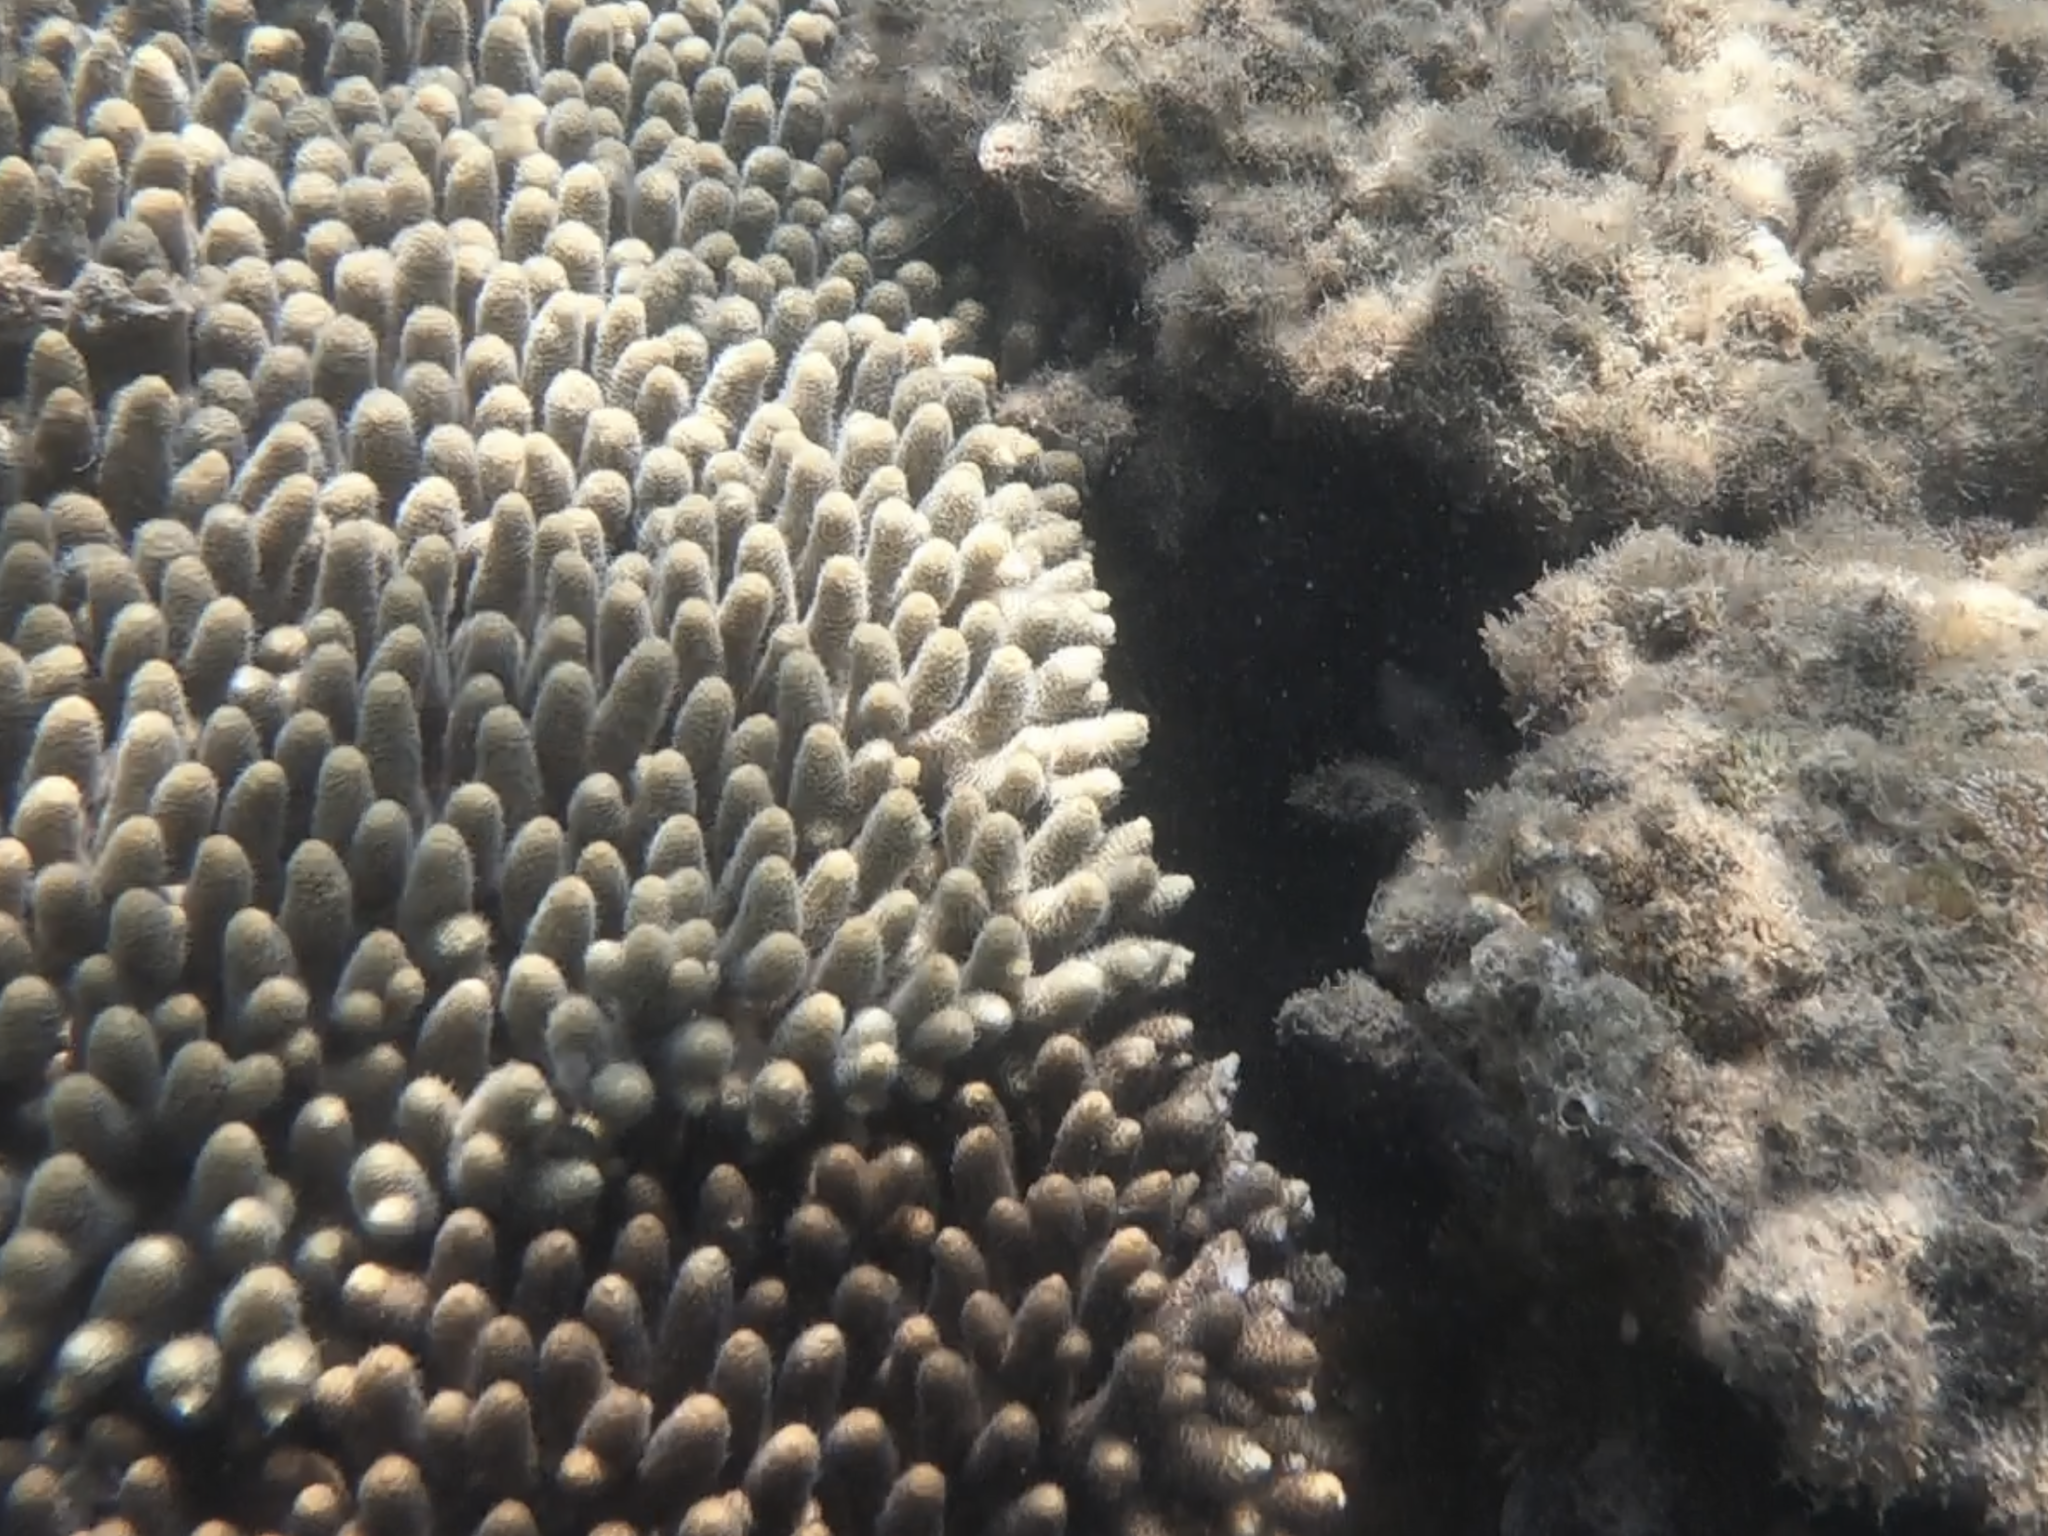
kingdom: Animalia
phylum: Cnidaria
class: Anthozoa
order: Scleractinia
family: Acroporidae
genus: Acropora
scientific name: Acropora millepora
